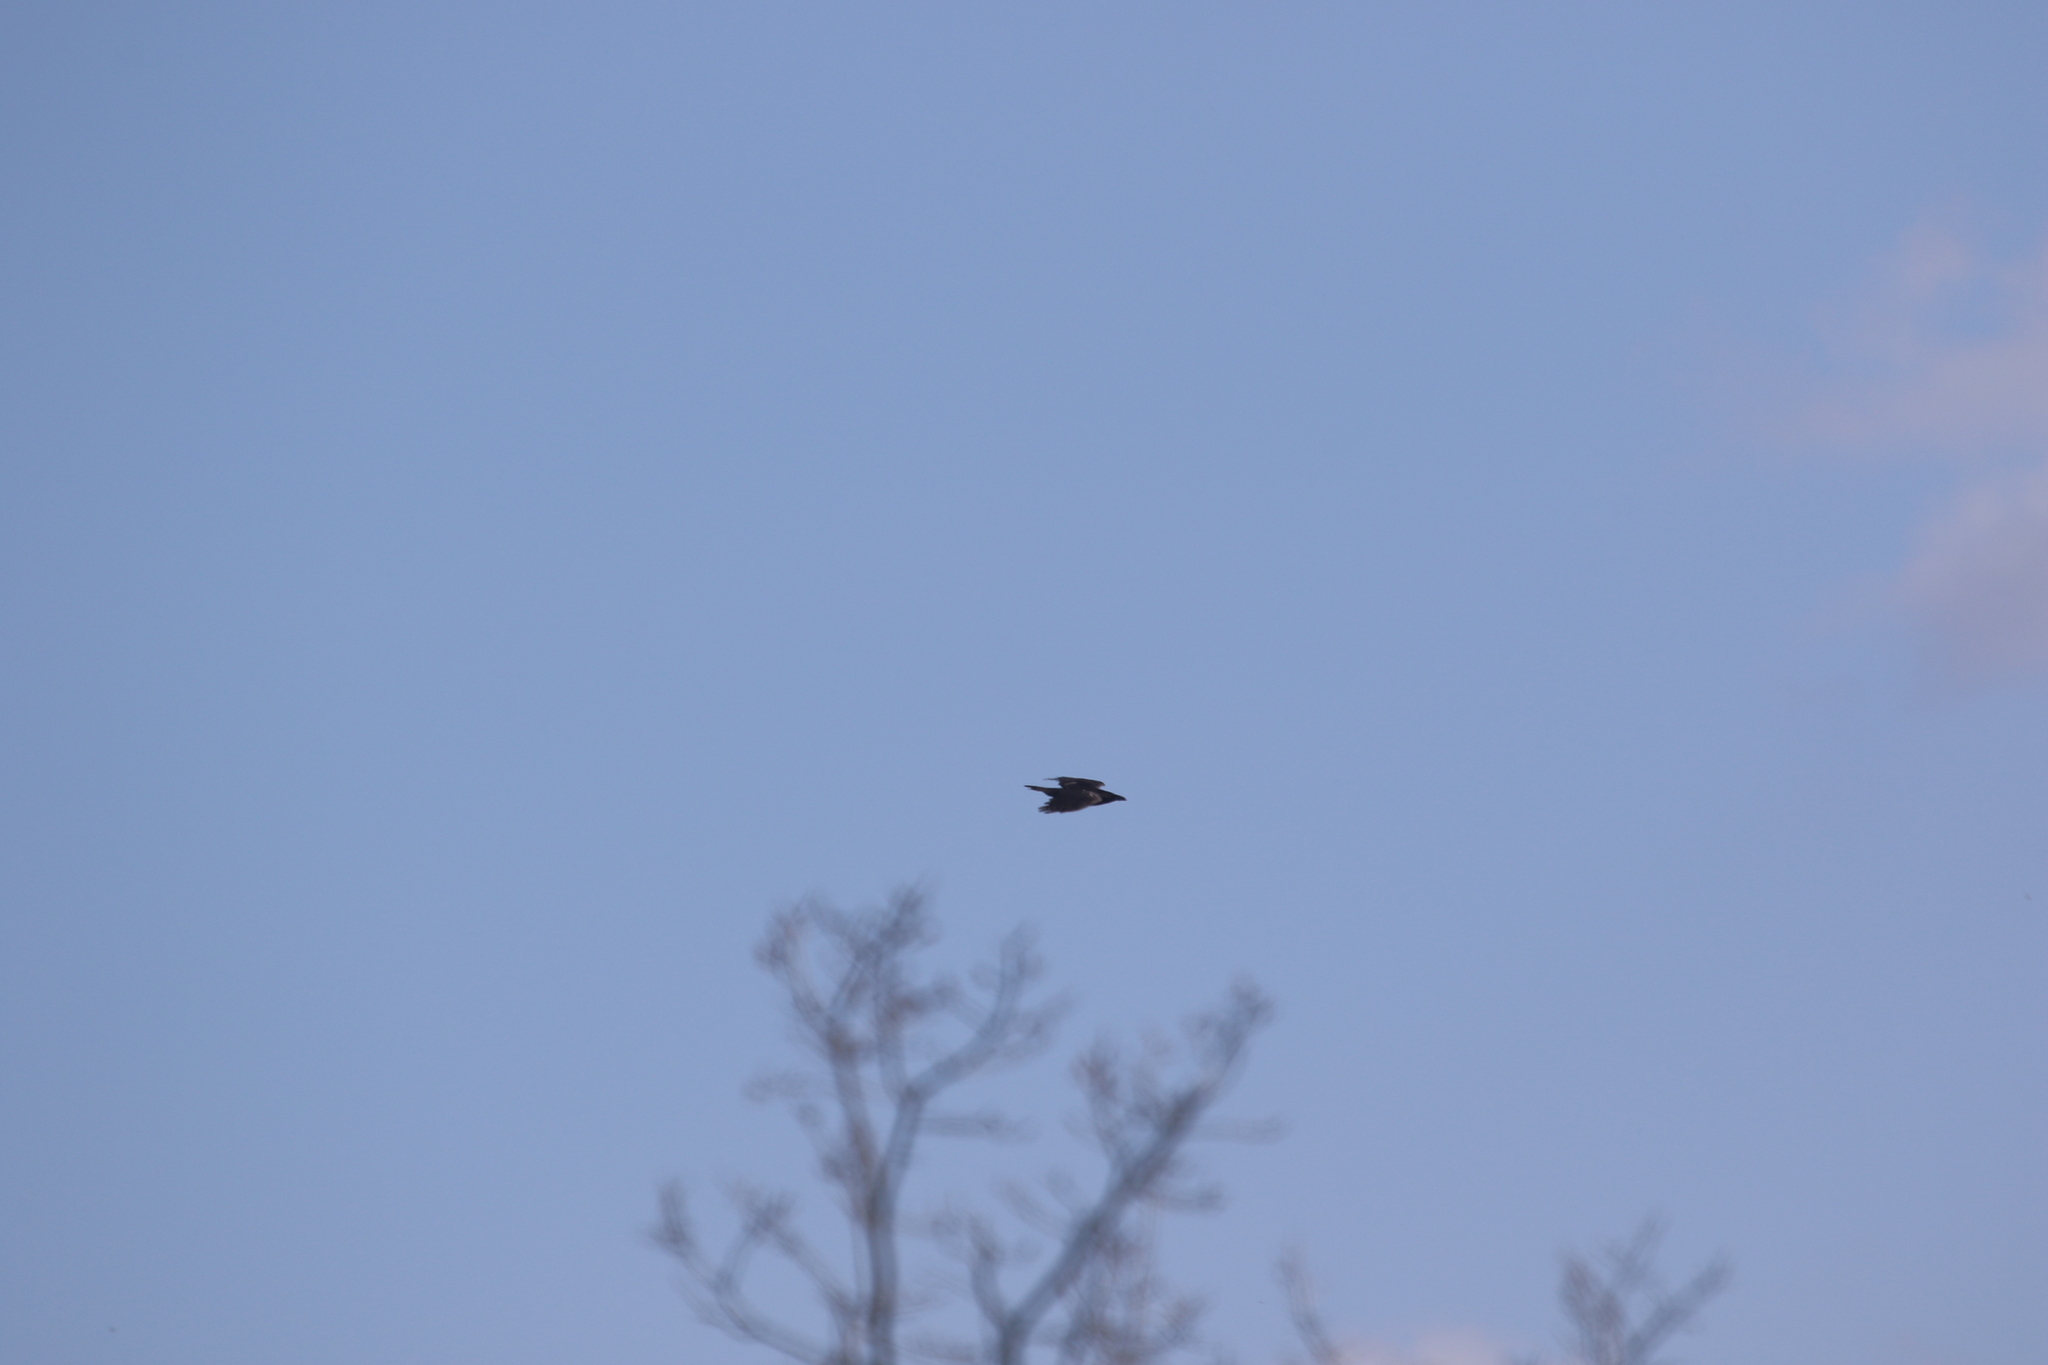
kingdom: Animalia
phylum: Chordata
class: Aves
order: Passeriformes
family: Corvidae
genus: Corvus
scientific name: Corvus corax
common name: Common raven
